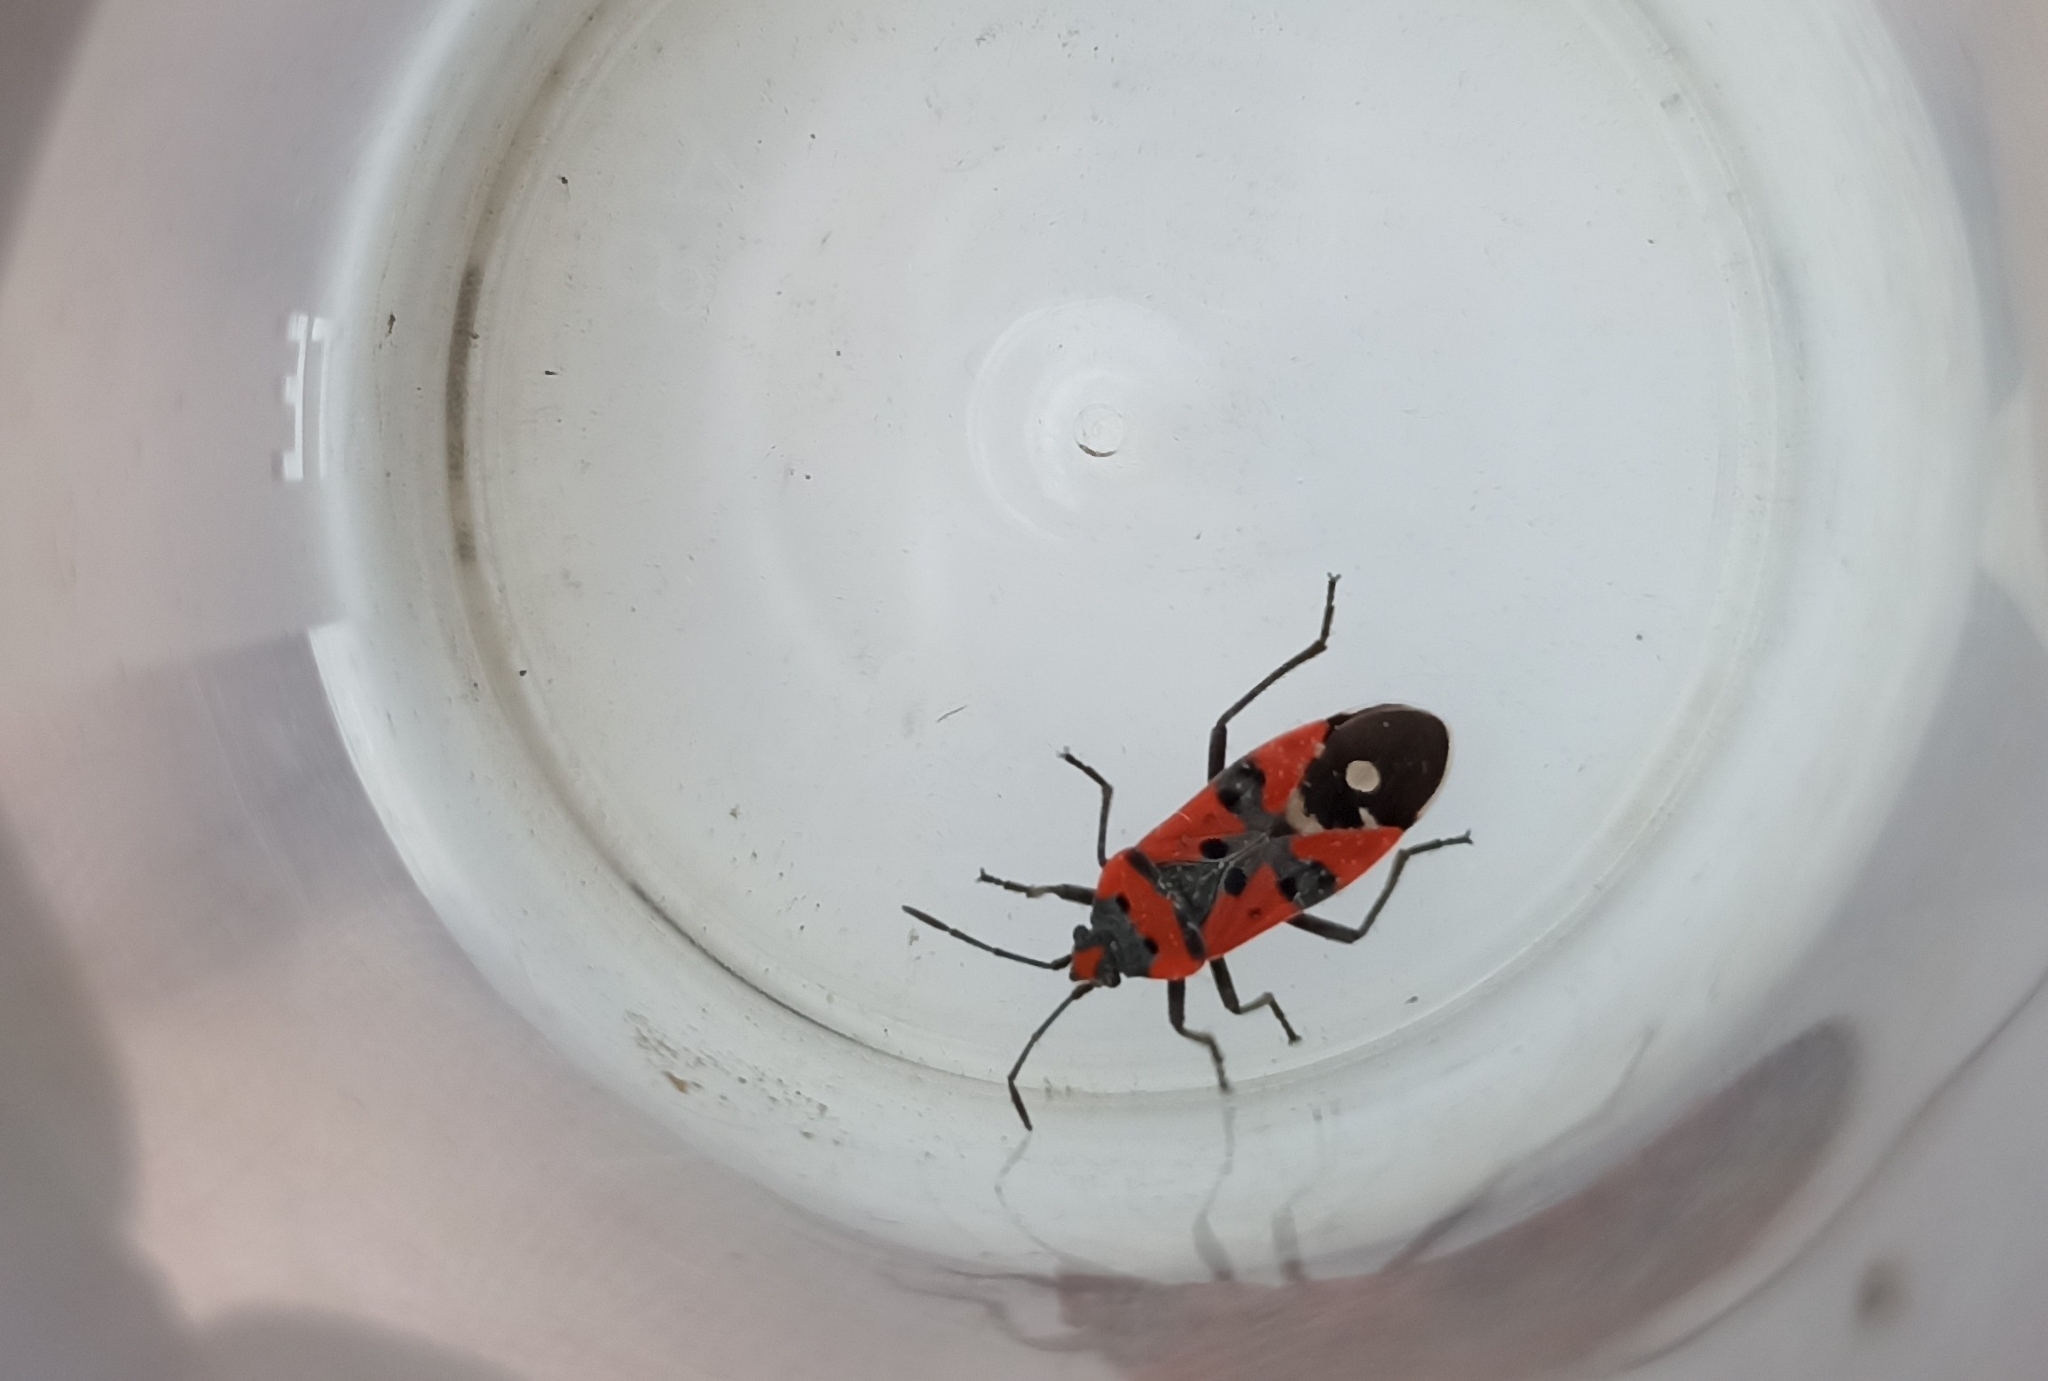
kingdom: Animalia
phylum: Arthropoda
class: Insecta
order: Hemiptera
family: Lygaeidae
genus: Lygaeus
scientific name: Lygaeus equestris
